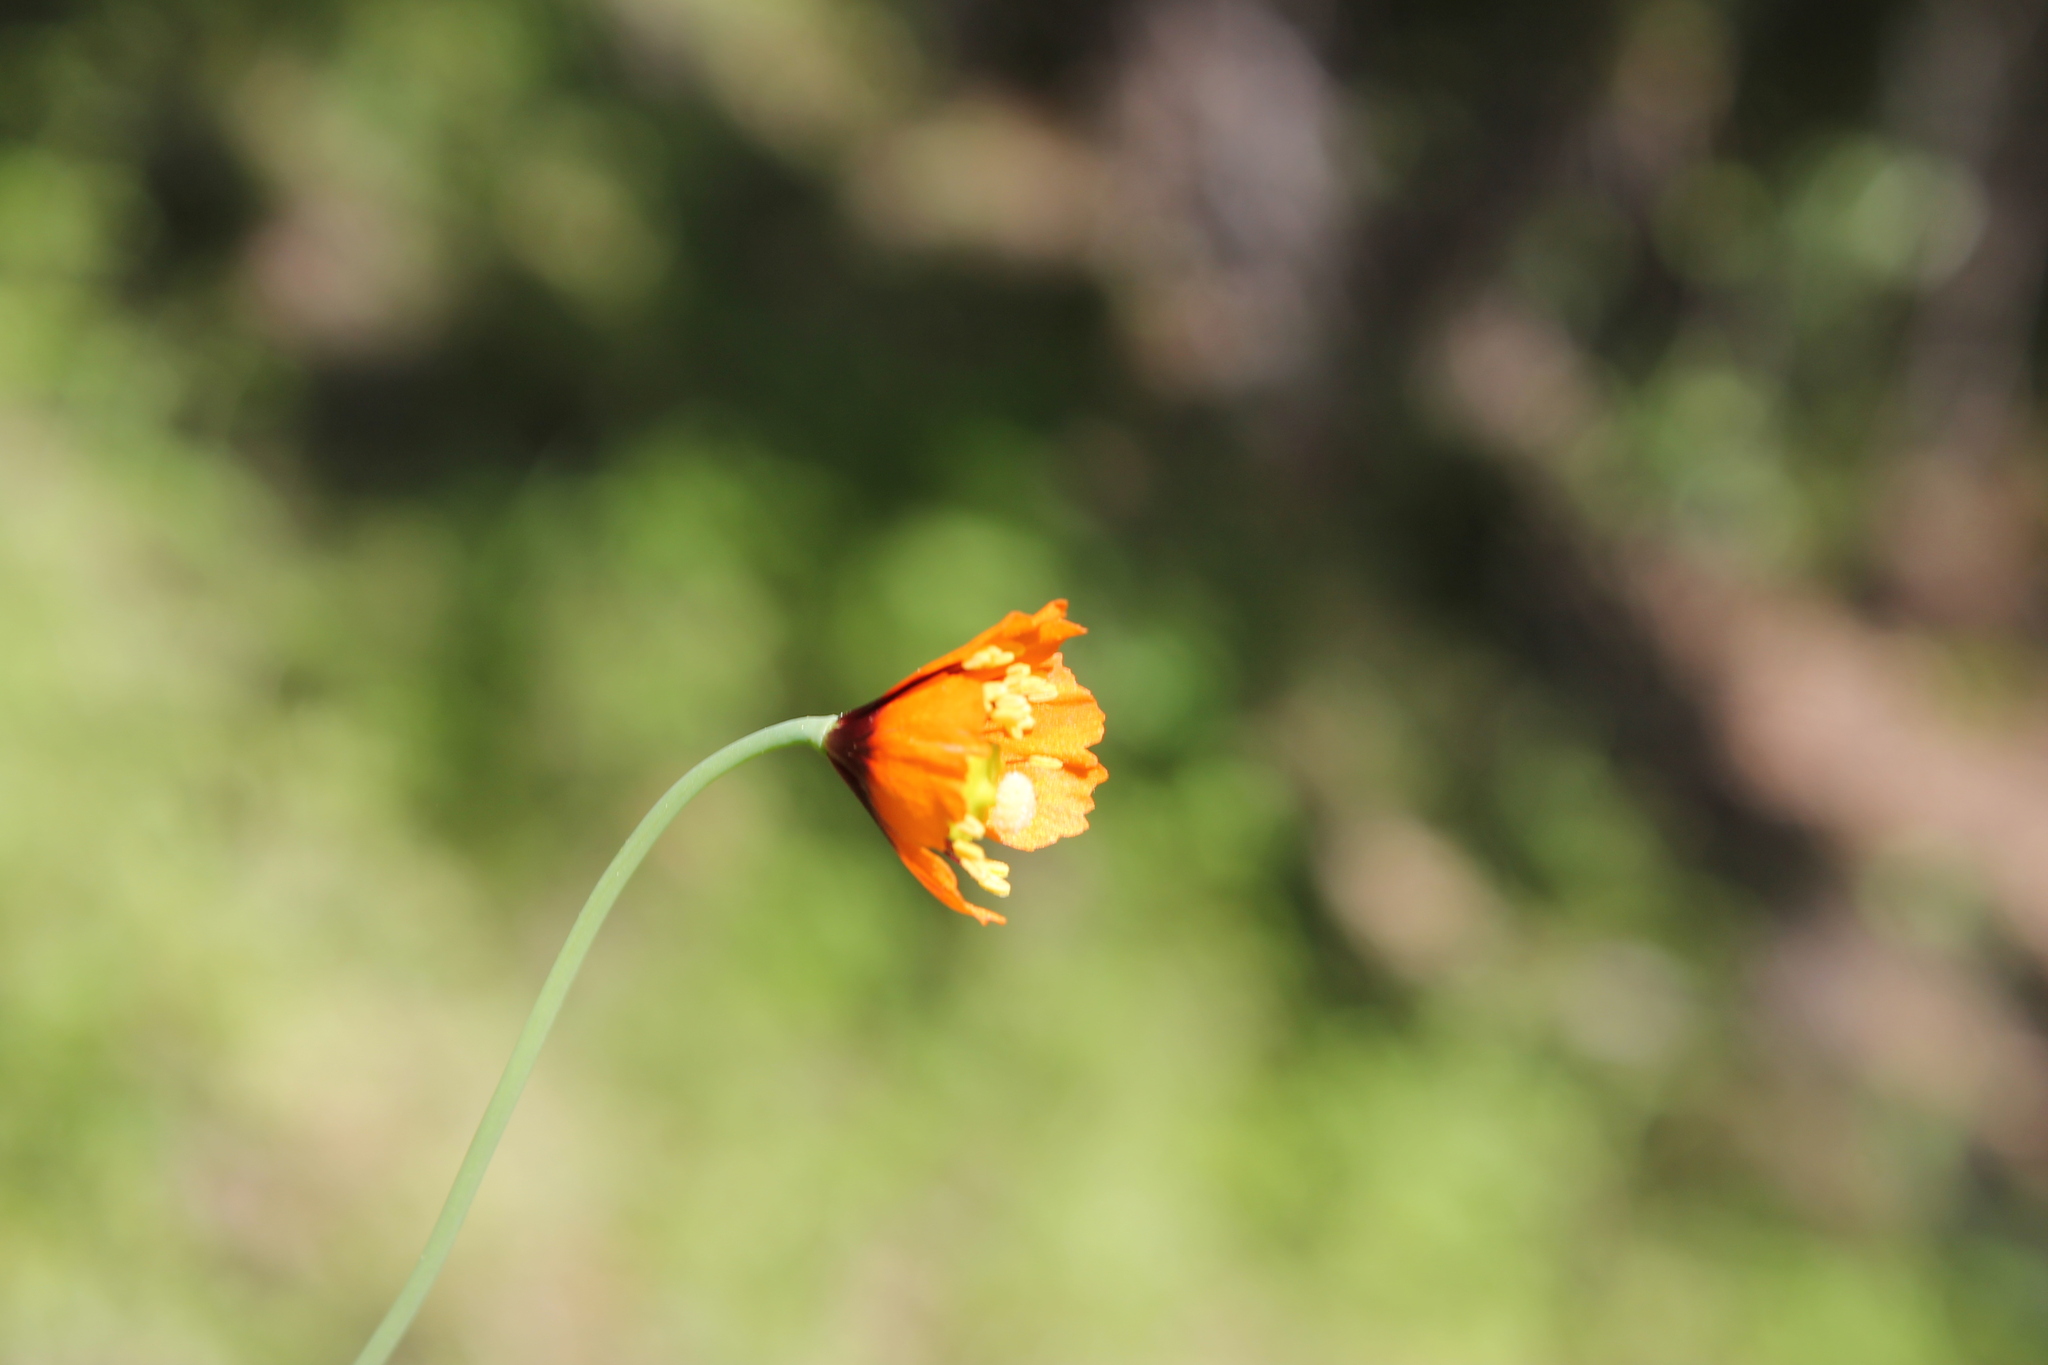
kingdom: Plantae
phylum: Tracheophyta
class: Magnoliopsida
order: Ranunculales
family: Papaveraceae
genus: Stylomecon
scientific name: Stylomecon heterophylla
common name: Flaming-poppy
